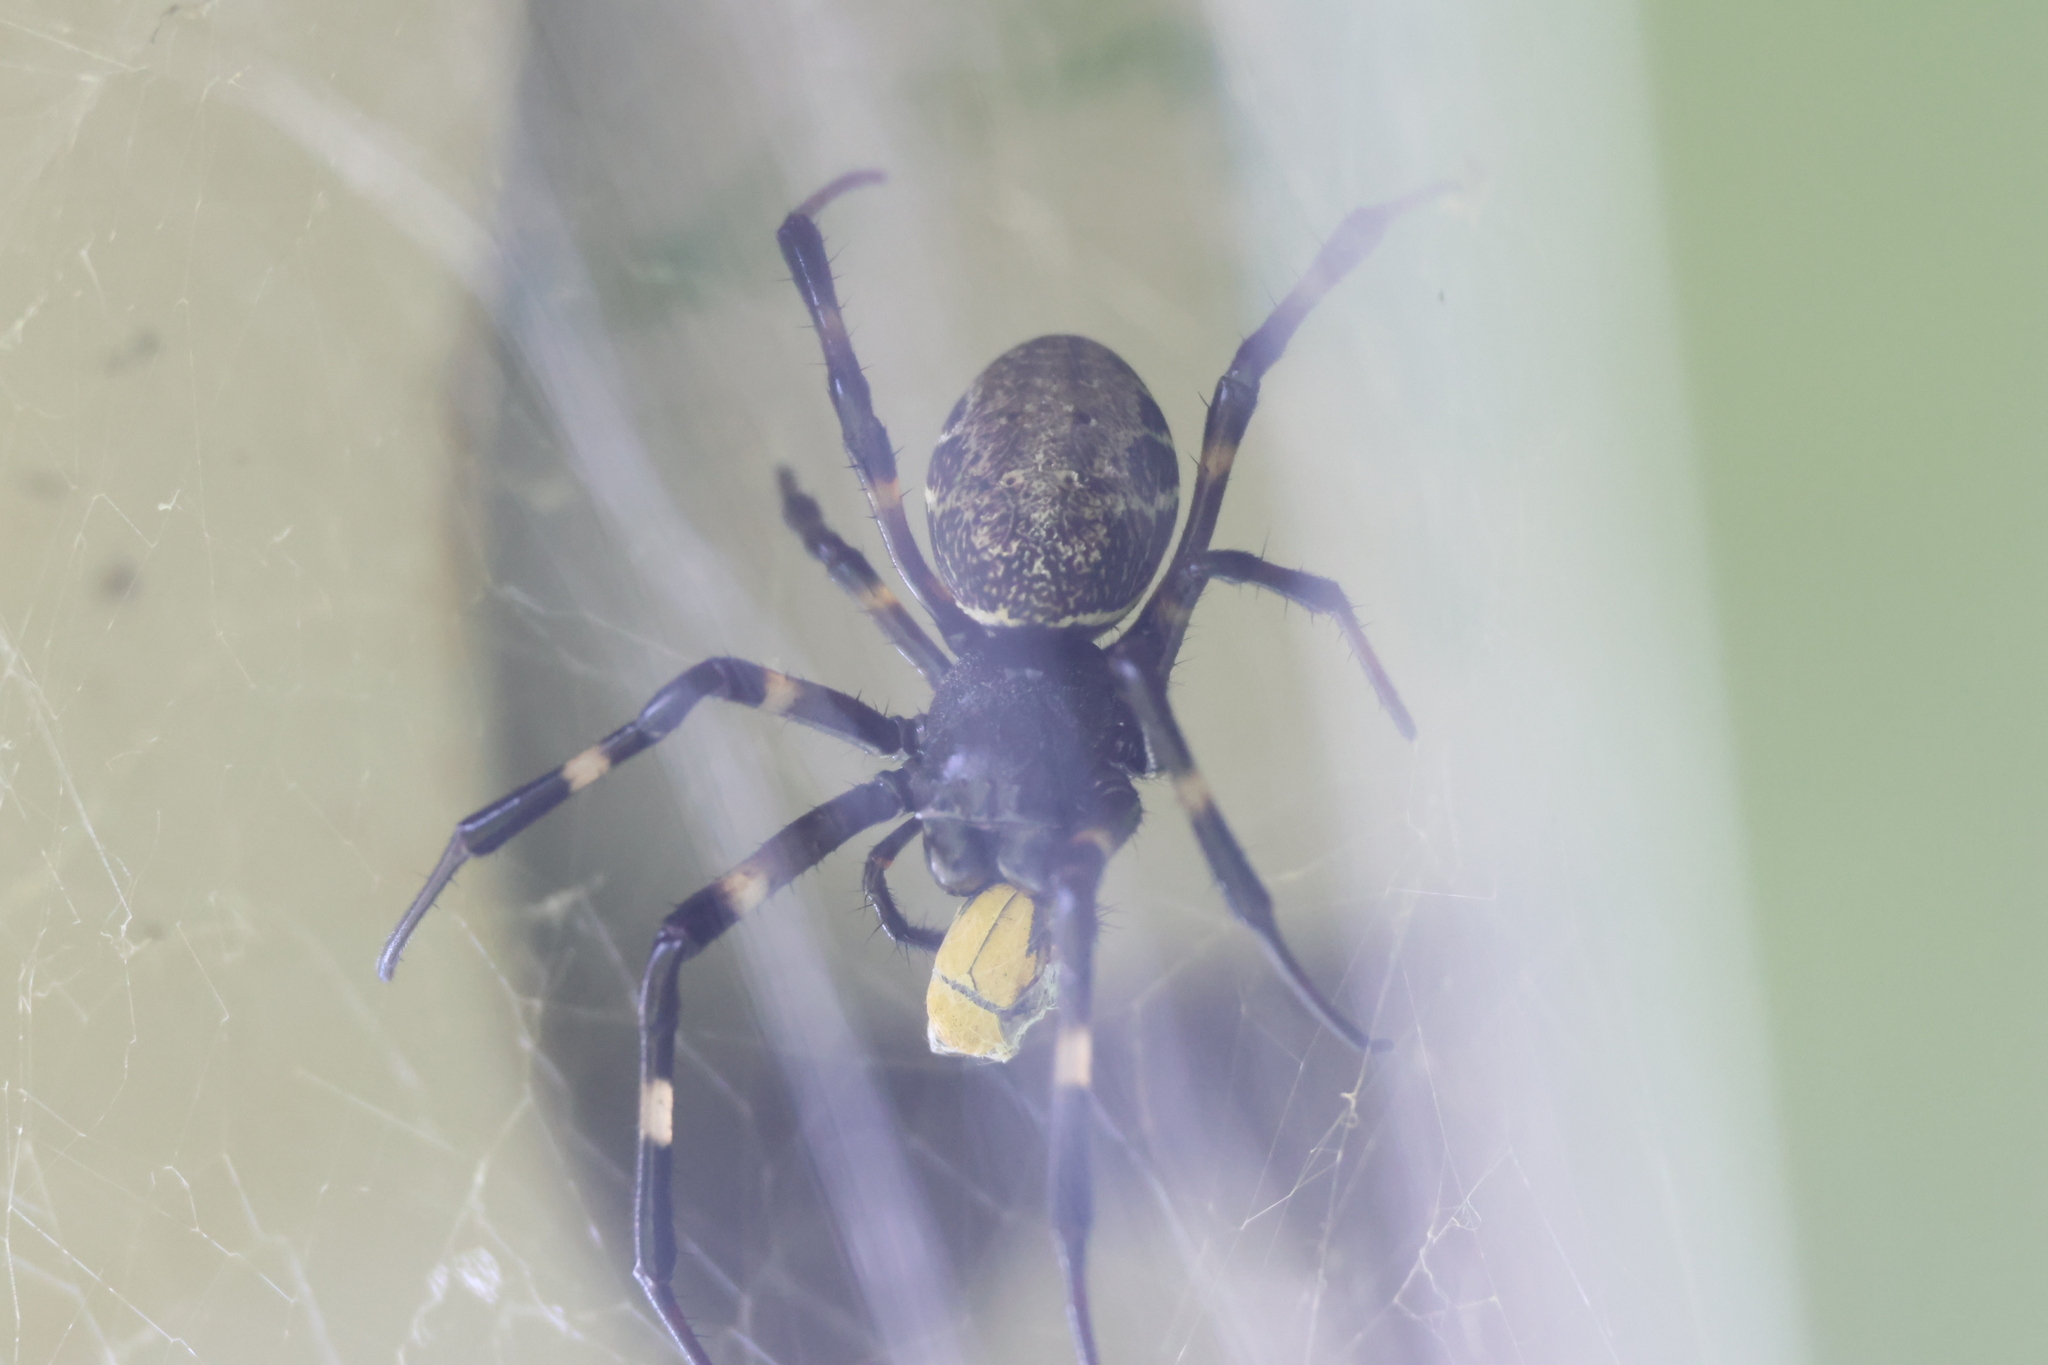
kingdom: Animalia
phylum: Arthropoda
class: Arachnida
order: Araneae
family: Araneidae
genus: Nephilengys
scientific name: Nephilengys malabarensis
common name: Asian hermit spider
